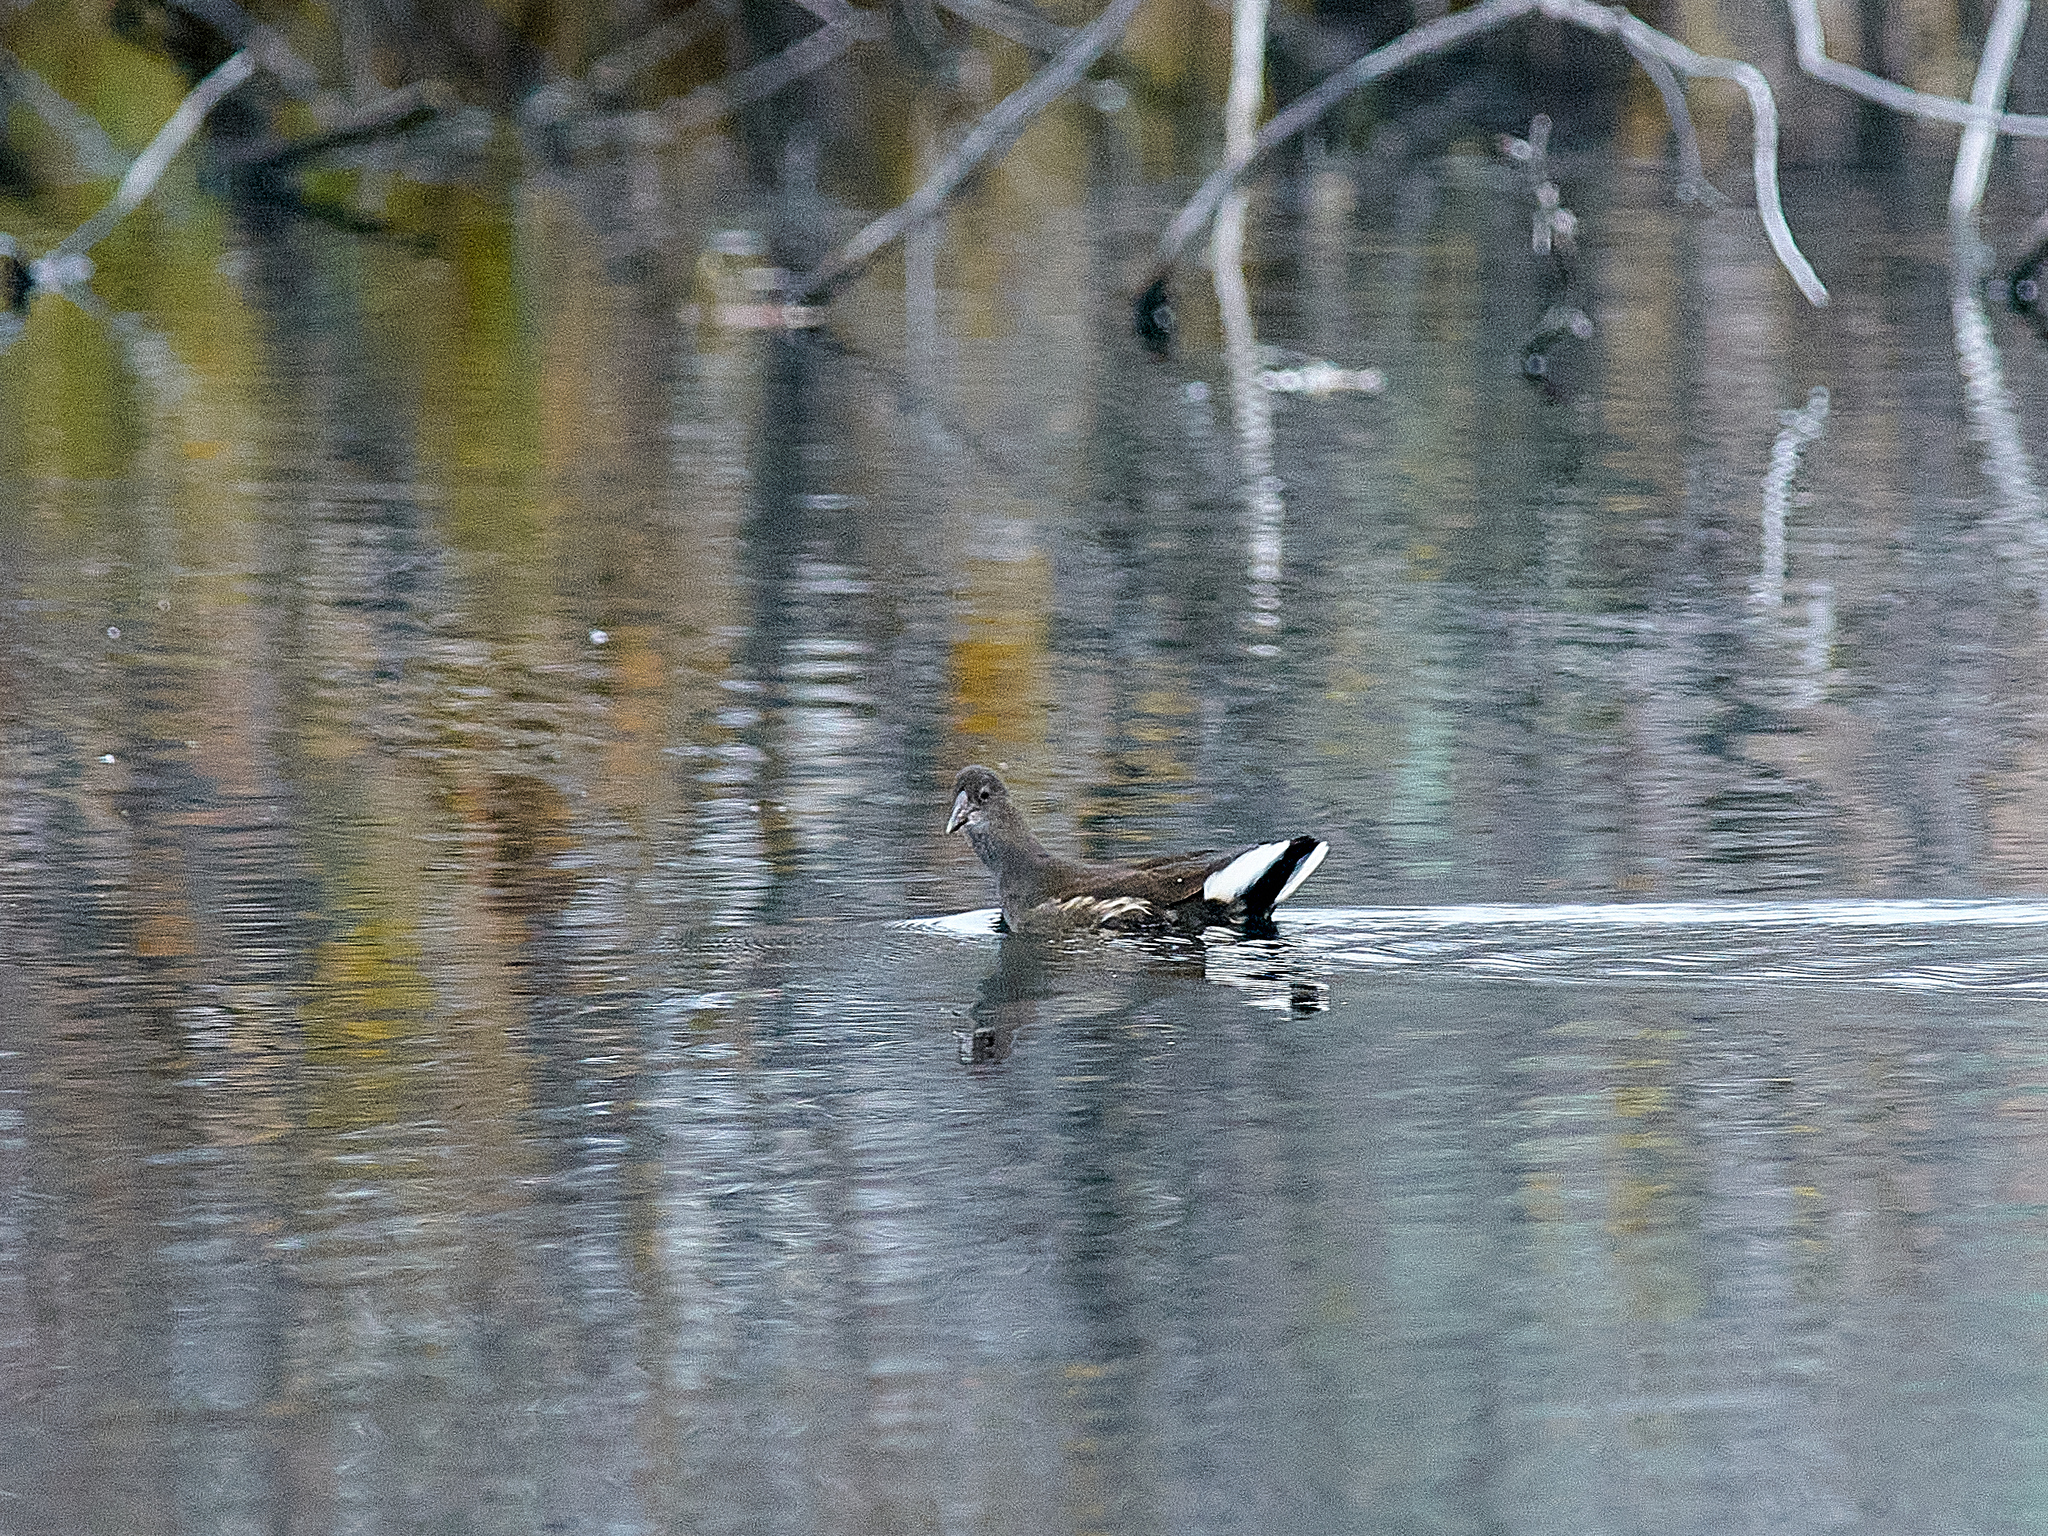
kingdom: Animalia
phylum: Chordata
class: Aves
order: Gruiformes
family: Rallidae
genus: Gallinula
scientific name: Gallinula chloropus
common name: Common moorhen
